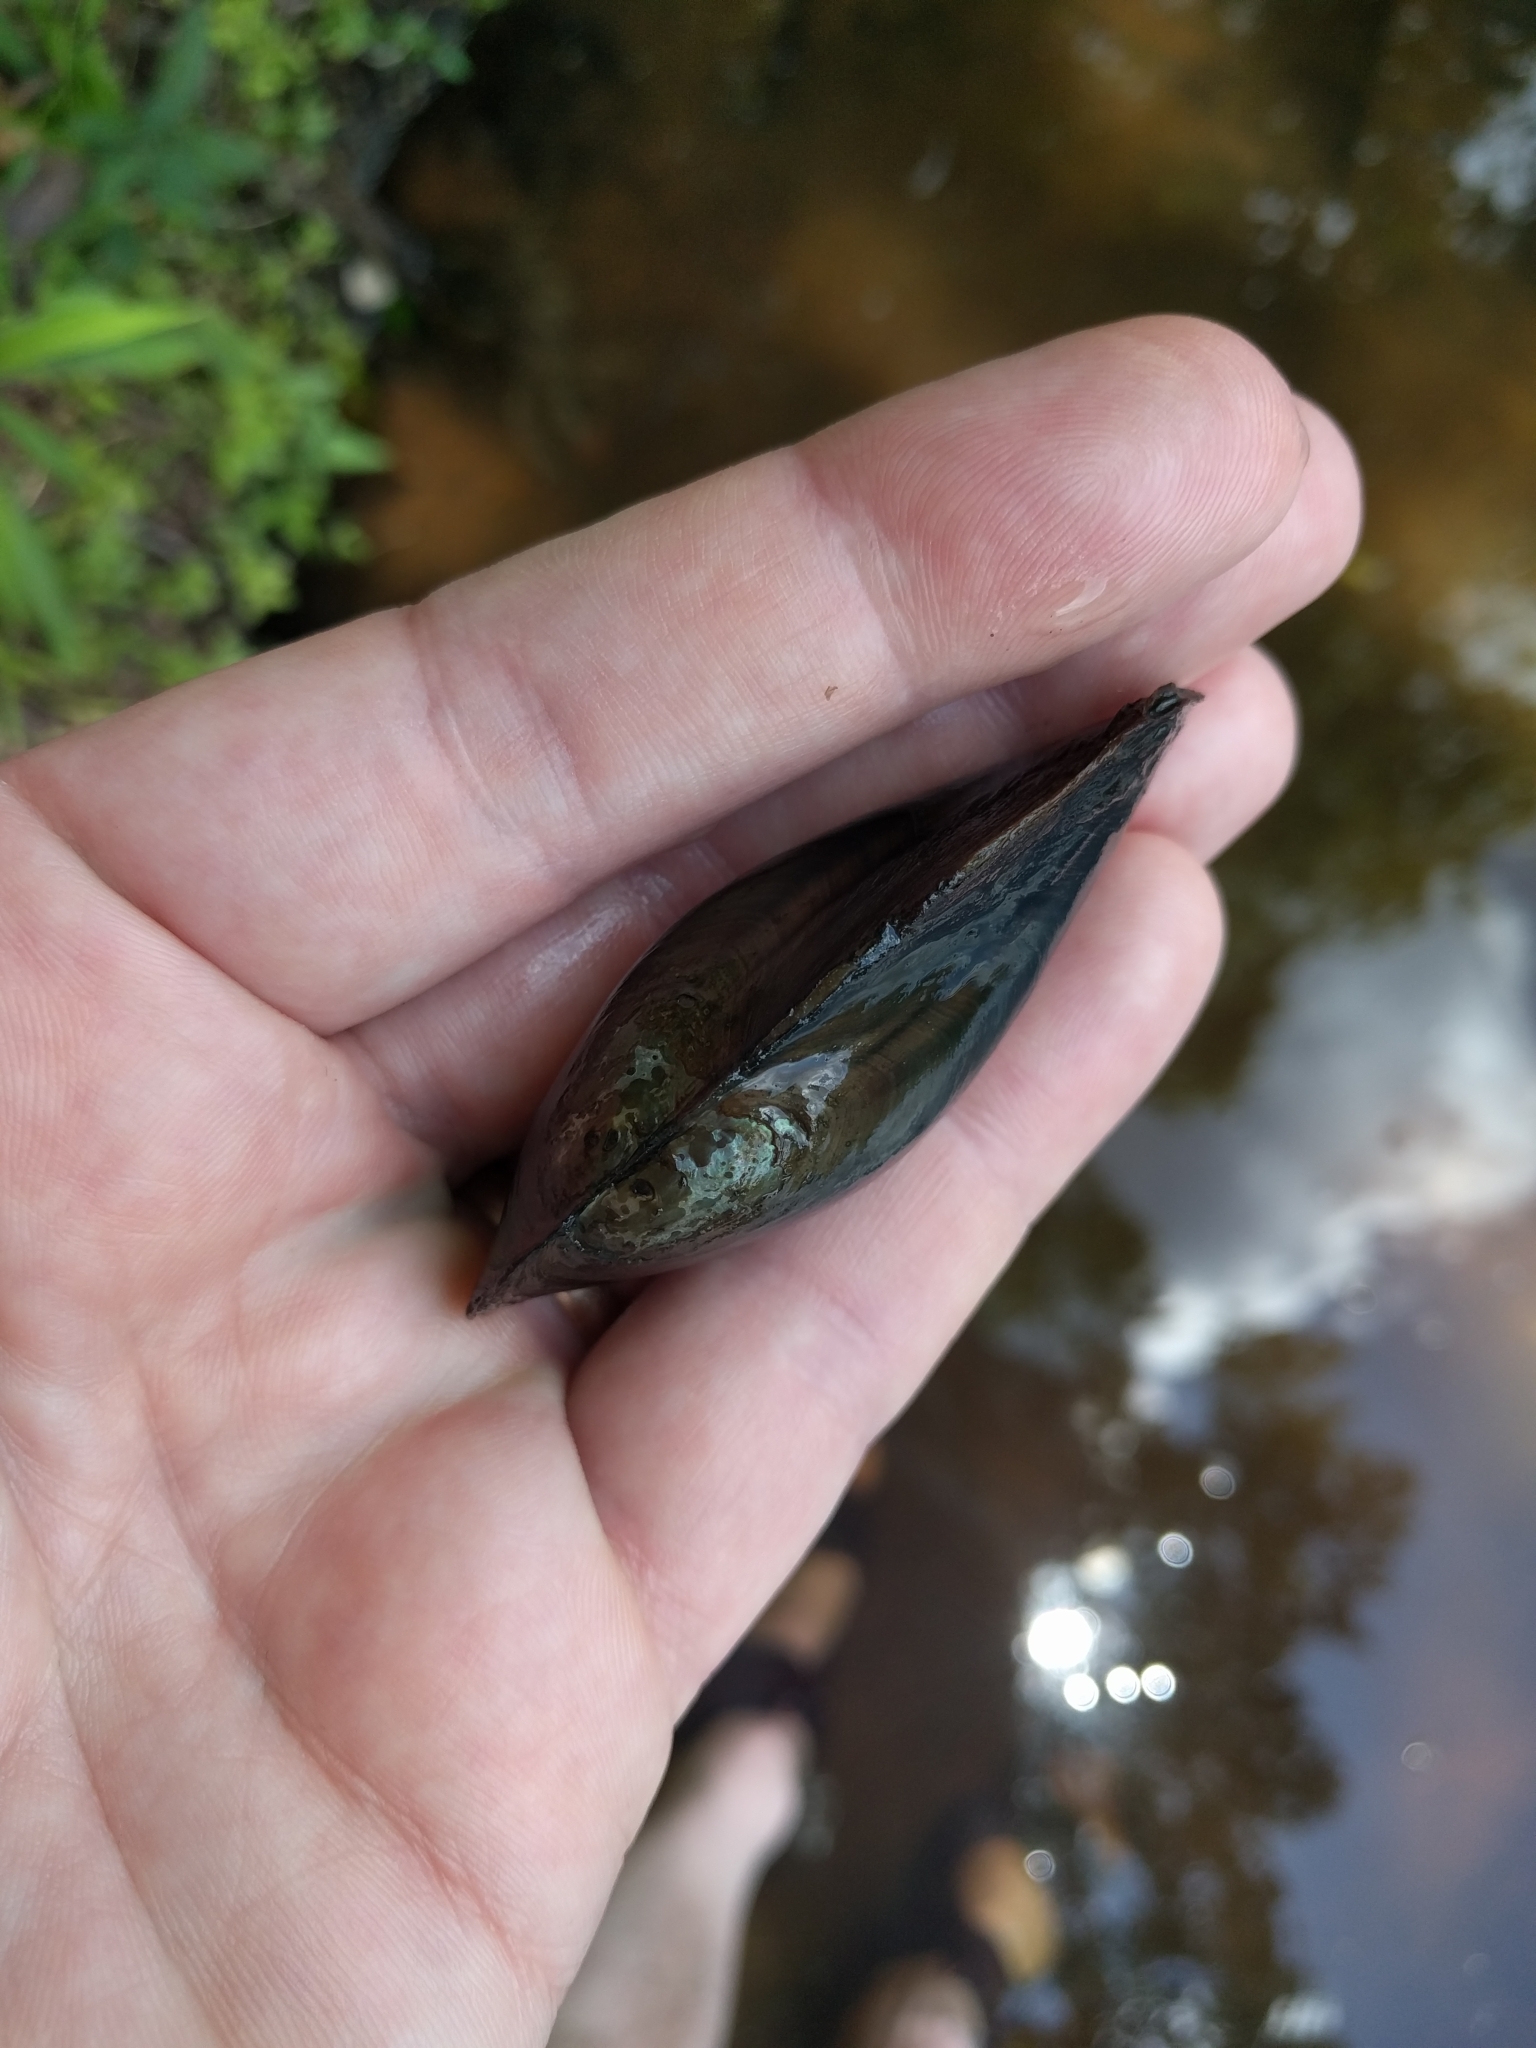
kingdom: Animalia
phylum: Mollusca
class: Bivalvia
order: Unionida
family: Unionidae
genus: Utterbackia
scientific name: Utterbackia imbecillis
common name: Paper pondshell
